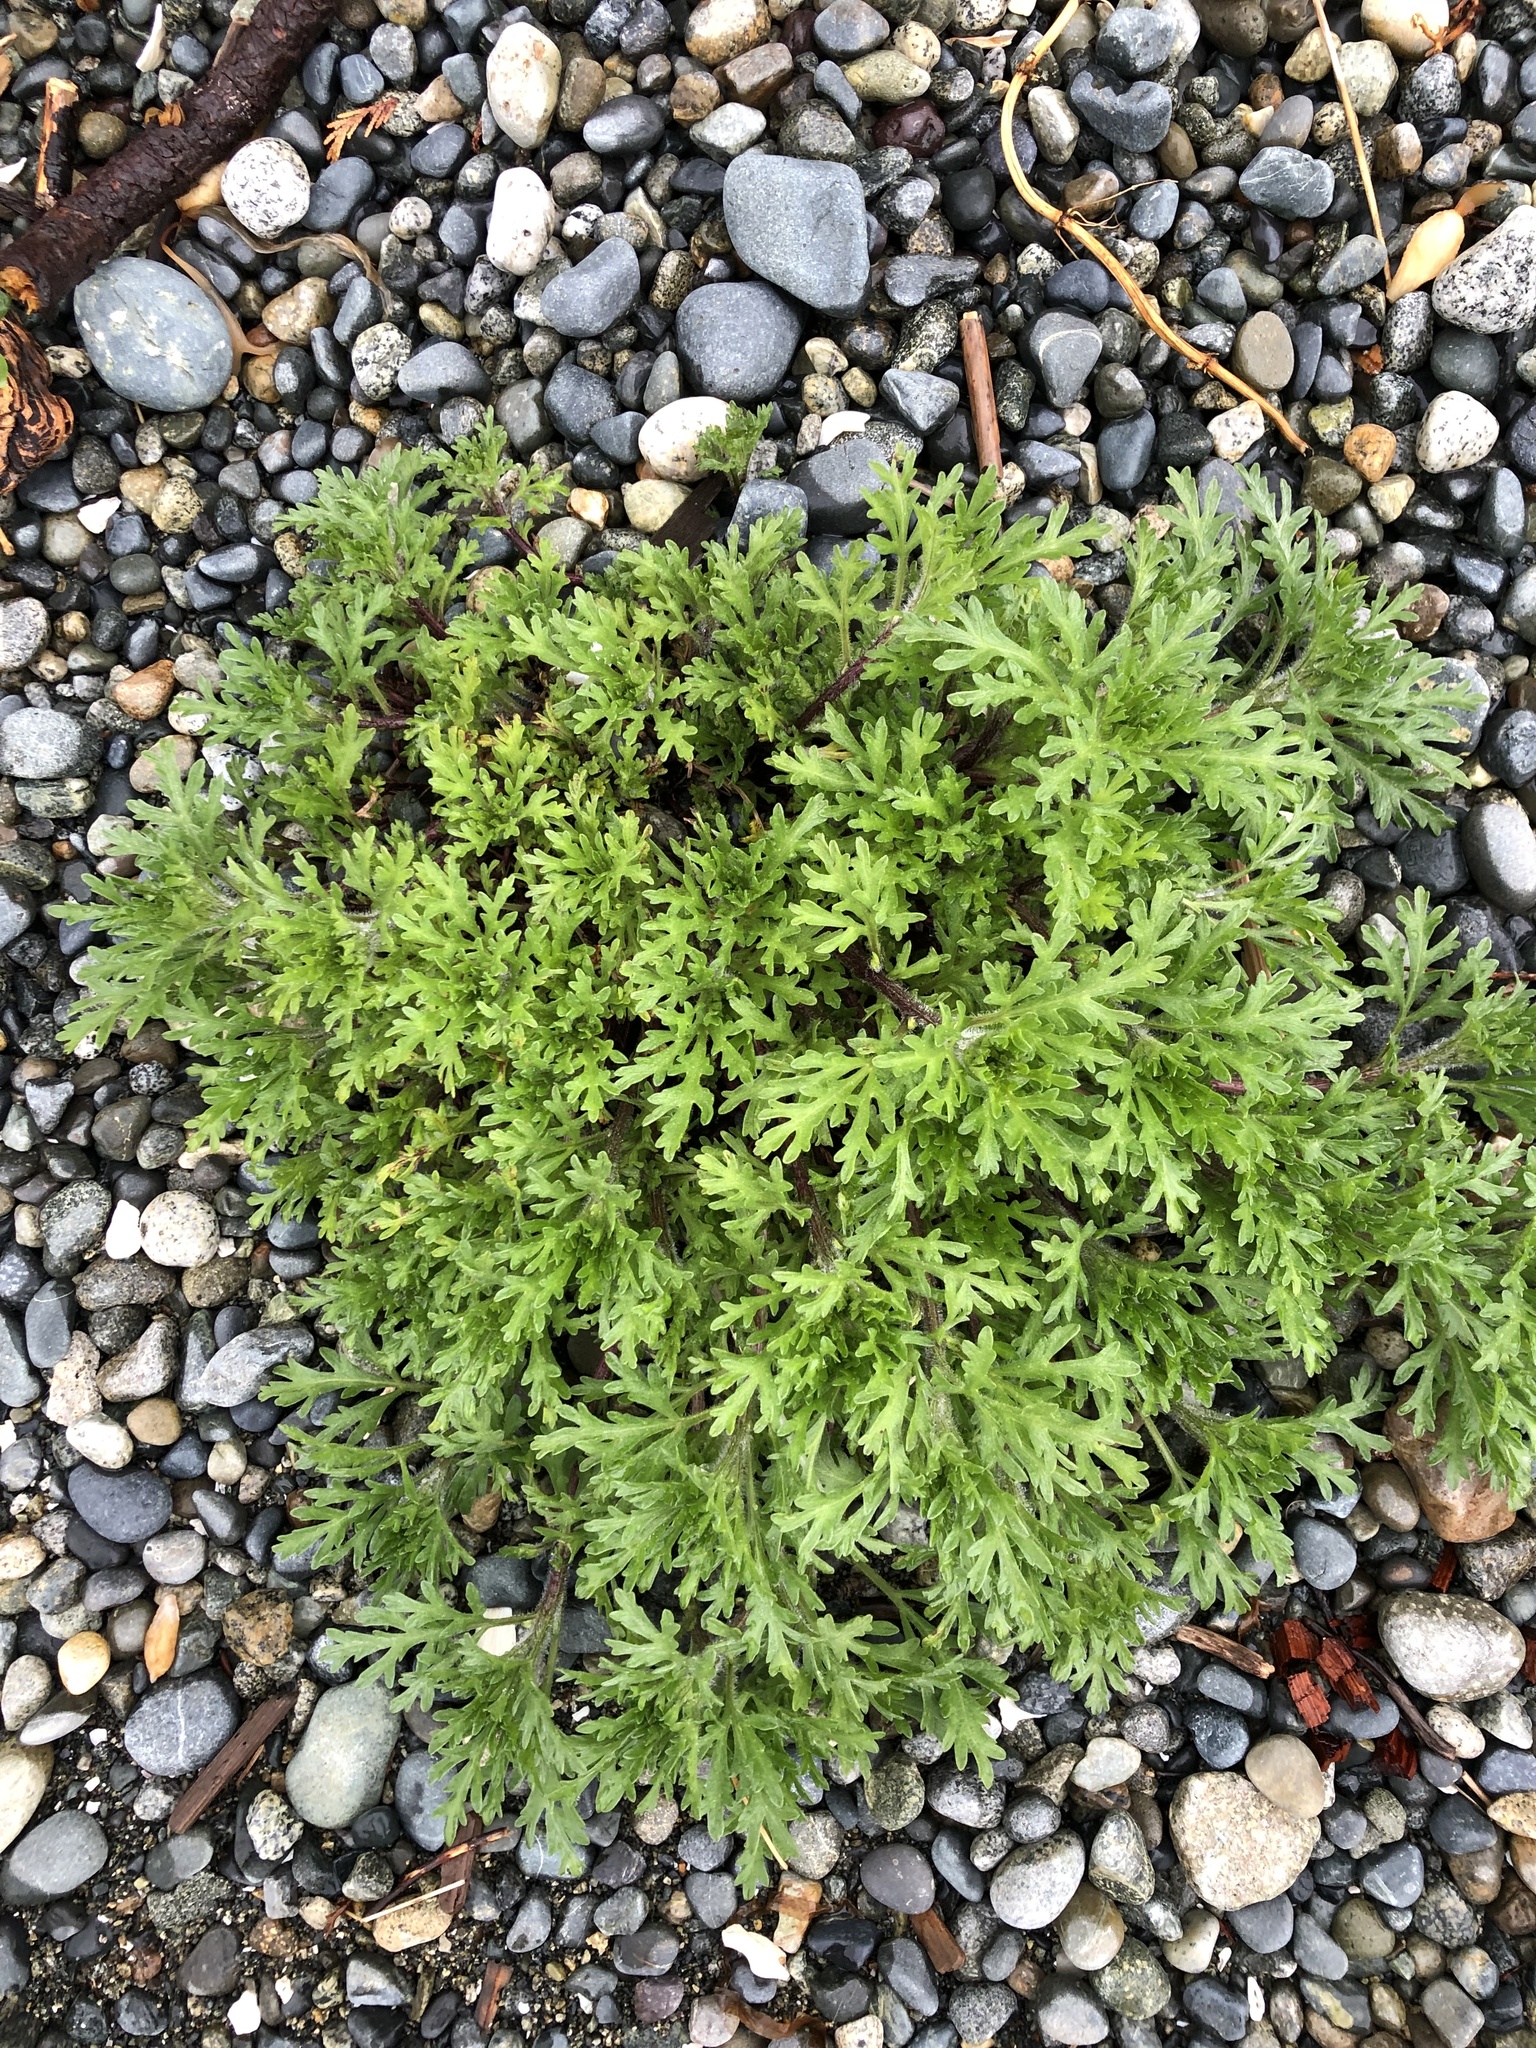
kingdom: Plantae
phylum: Tracheophyta
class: Magnoliopsida
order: Asterales
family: Asteraceae
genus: Ambrosia
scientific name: Ambrosia chamissonis
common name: Beachbur
